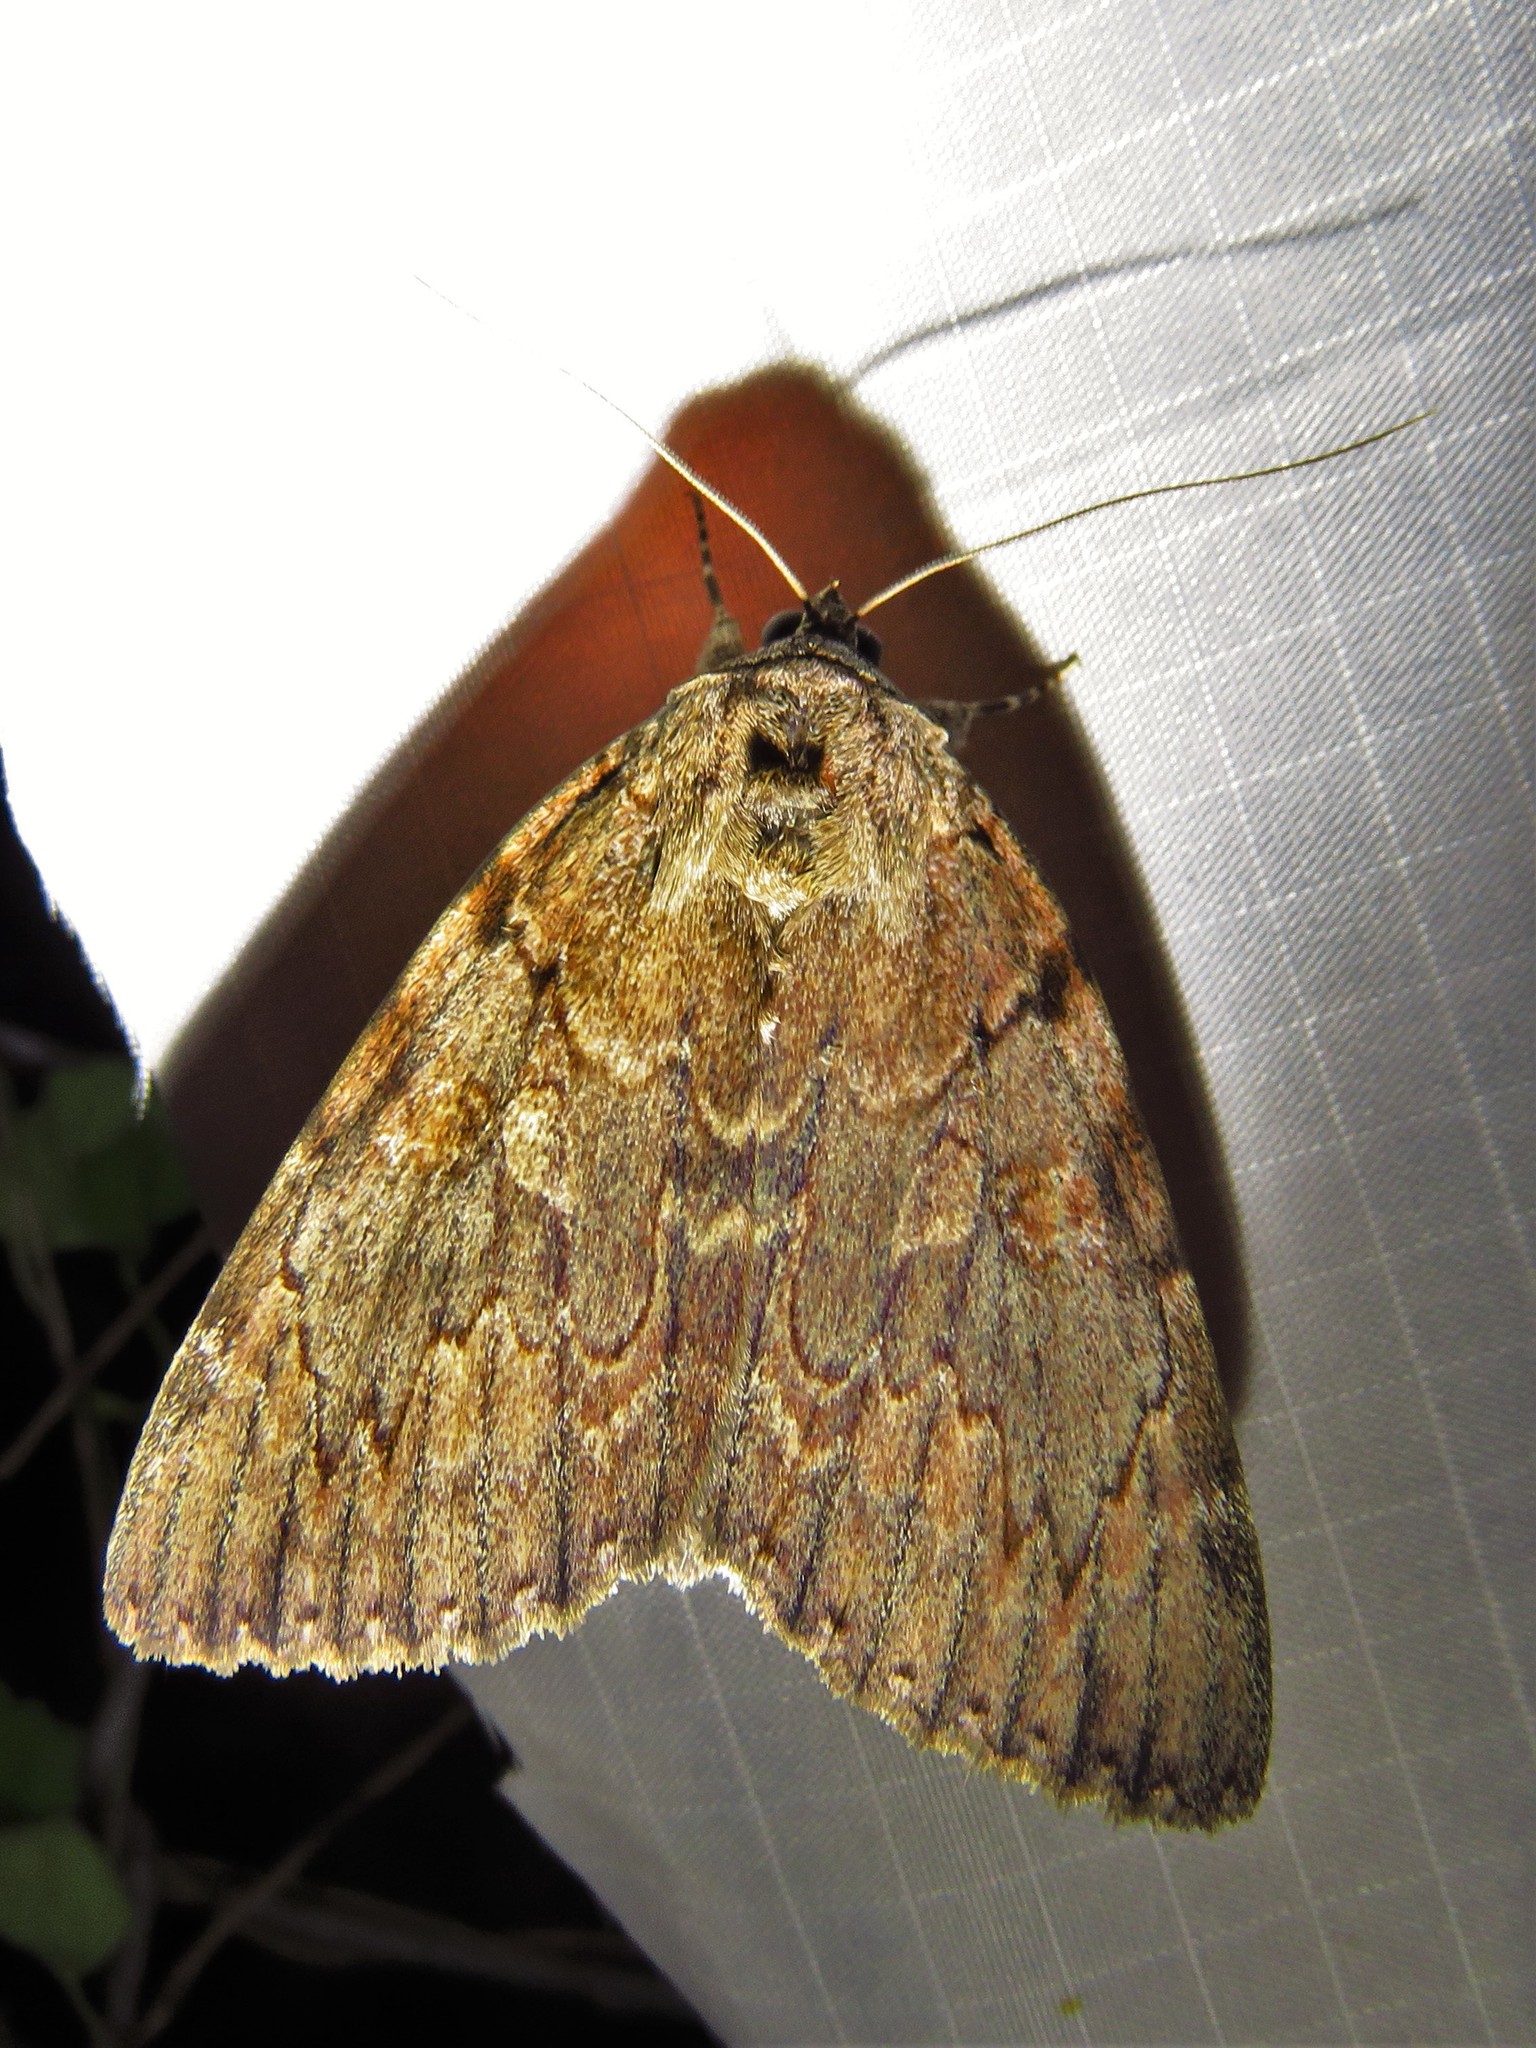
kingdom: Animalia
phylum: Arthropoda
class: Insecta
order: Lepidoptera
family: Erebidae
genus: Catocala
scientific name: Catocala agrippina
